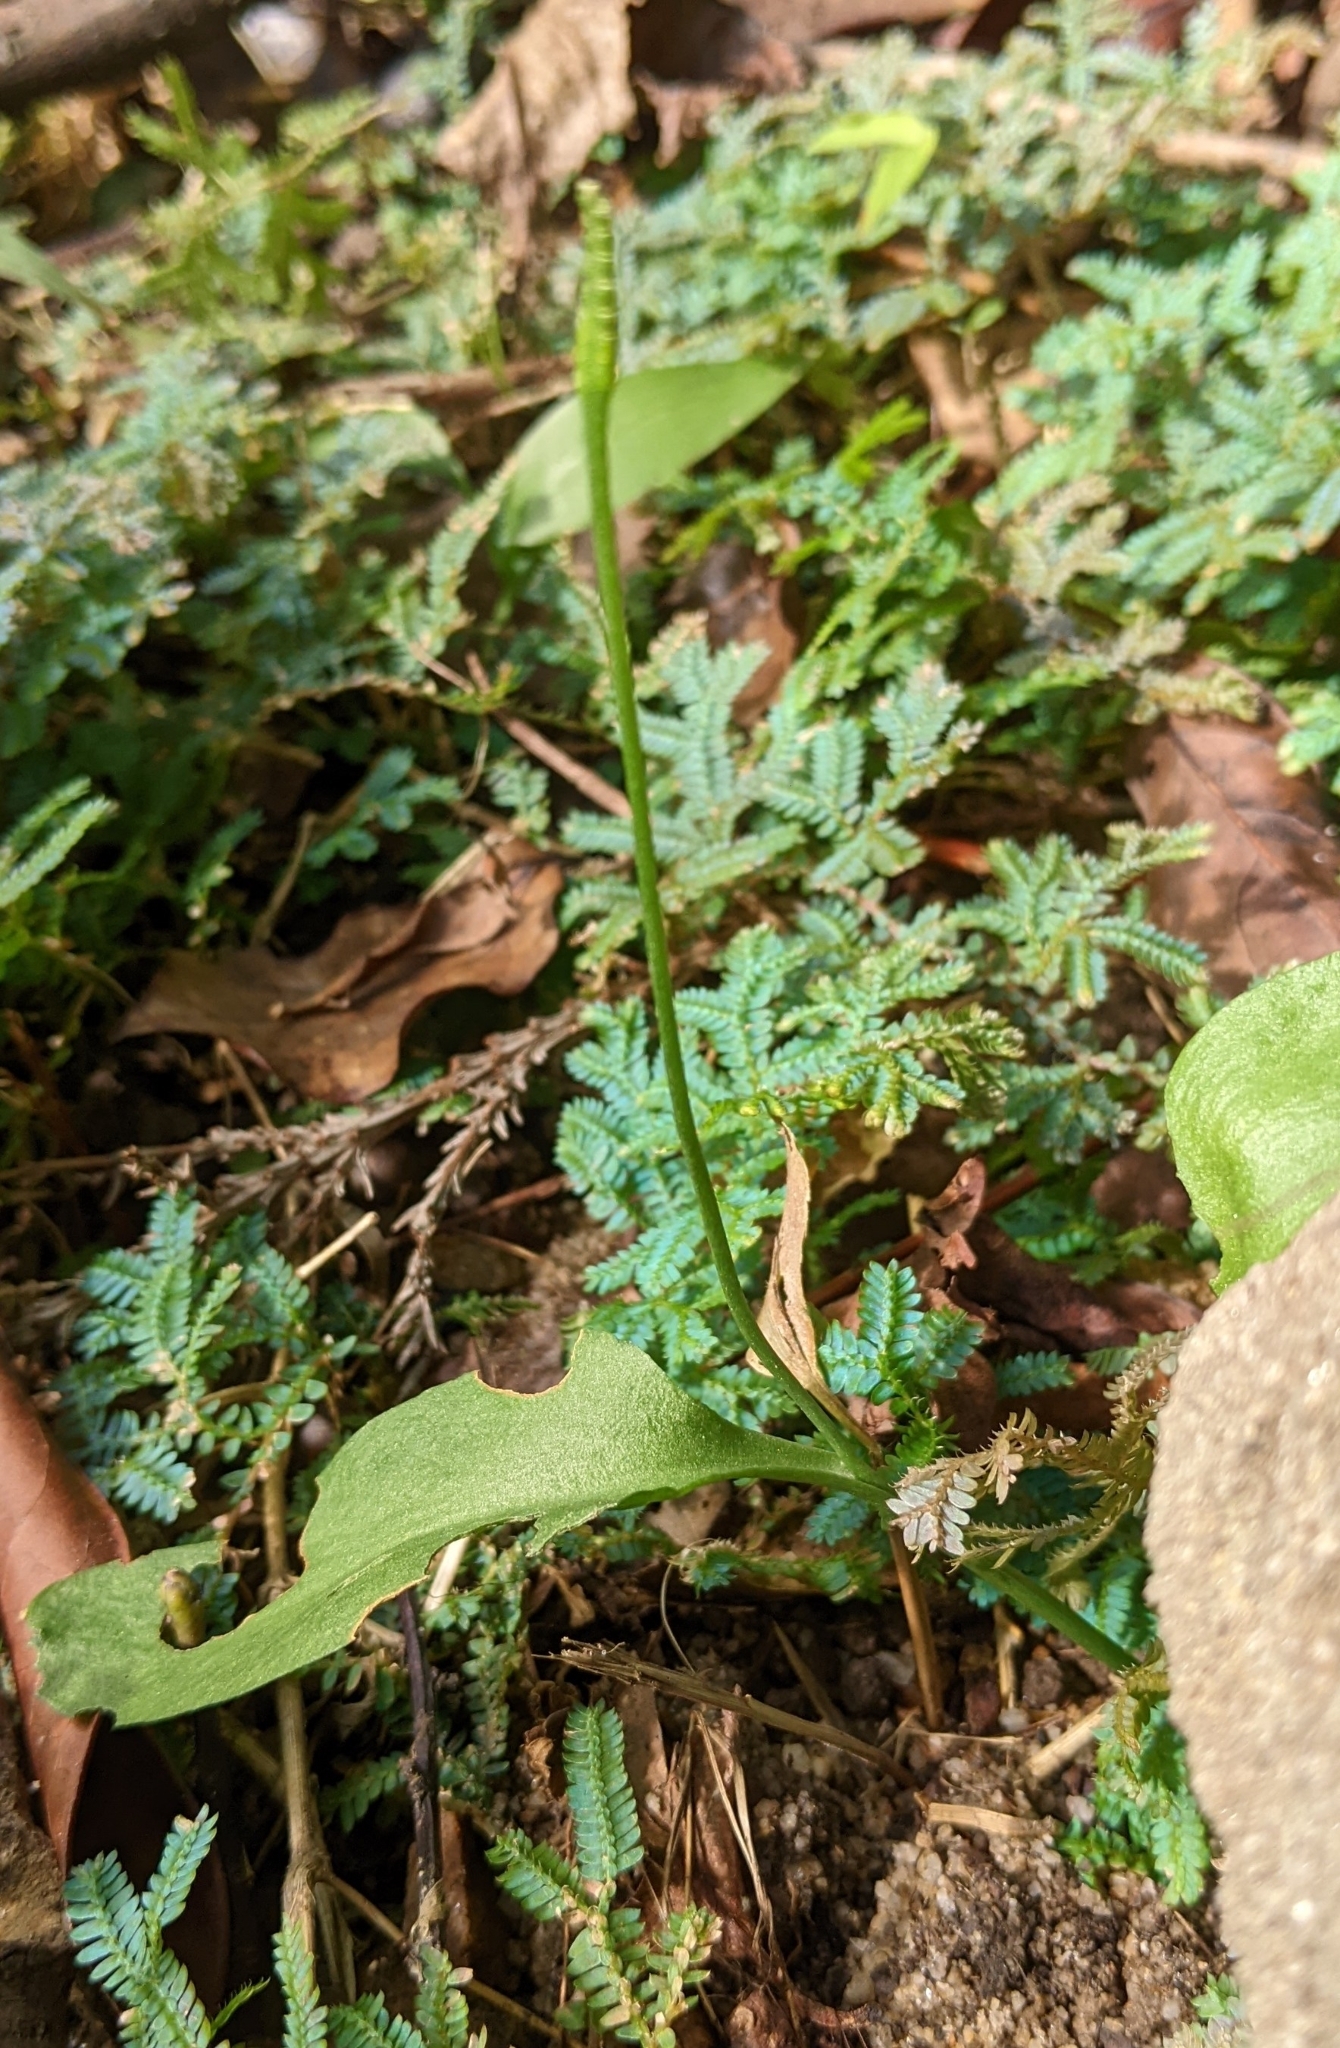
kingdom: Plantae
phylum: Tracheophyta
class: Polypodiopsida
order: Ophioglossales
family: Ophioglossaceae
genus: Ophioglossum
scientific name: Ophioglossum petiolatum
